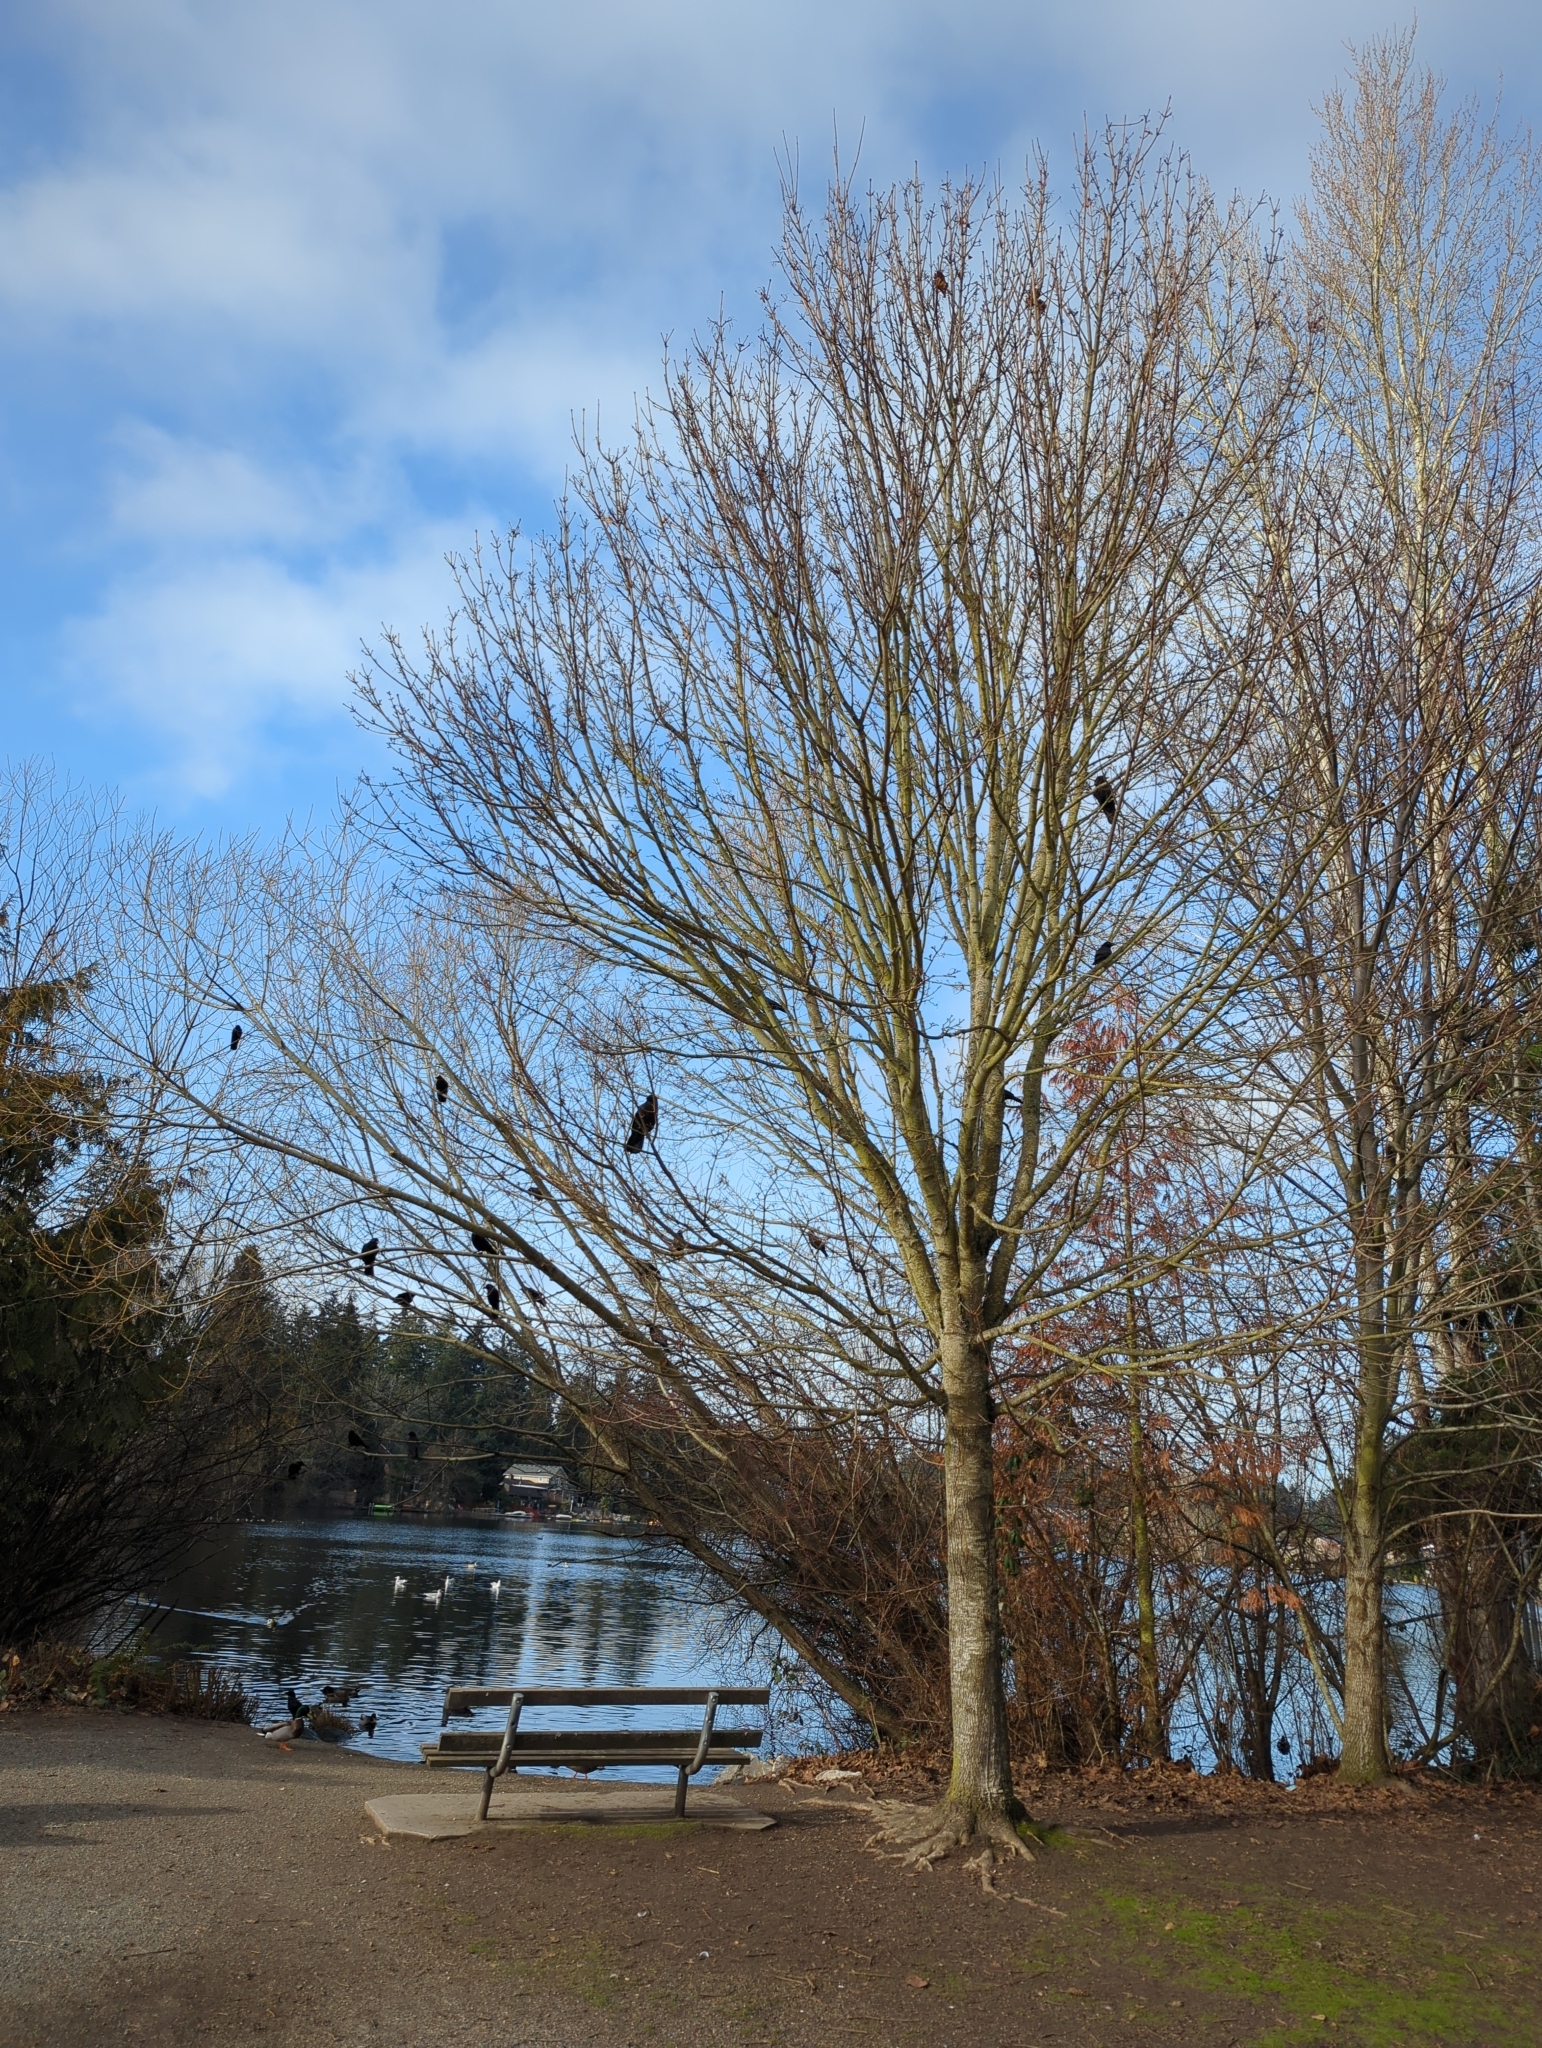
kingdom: Animalia
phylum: Chordata
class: Aves
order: Passeriformes
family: Corvidae
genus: Corvus
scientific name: Corvus brachyrhynchos
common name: American crow
